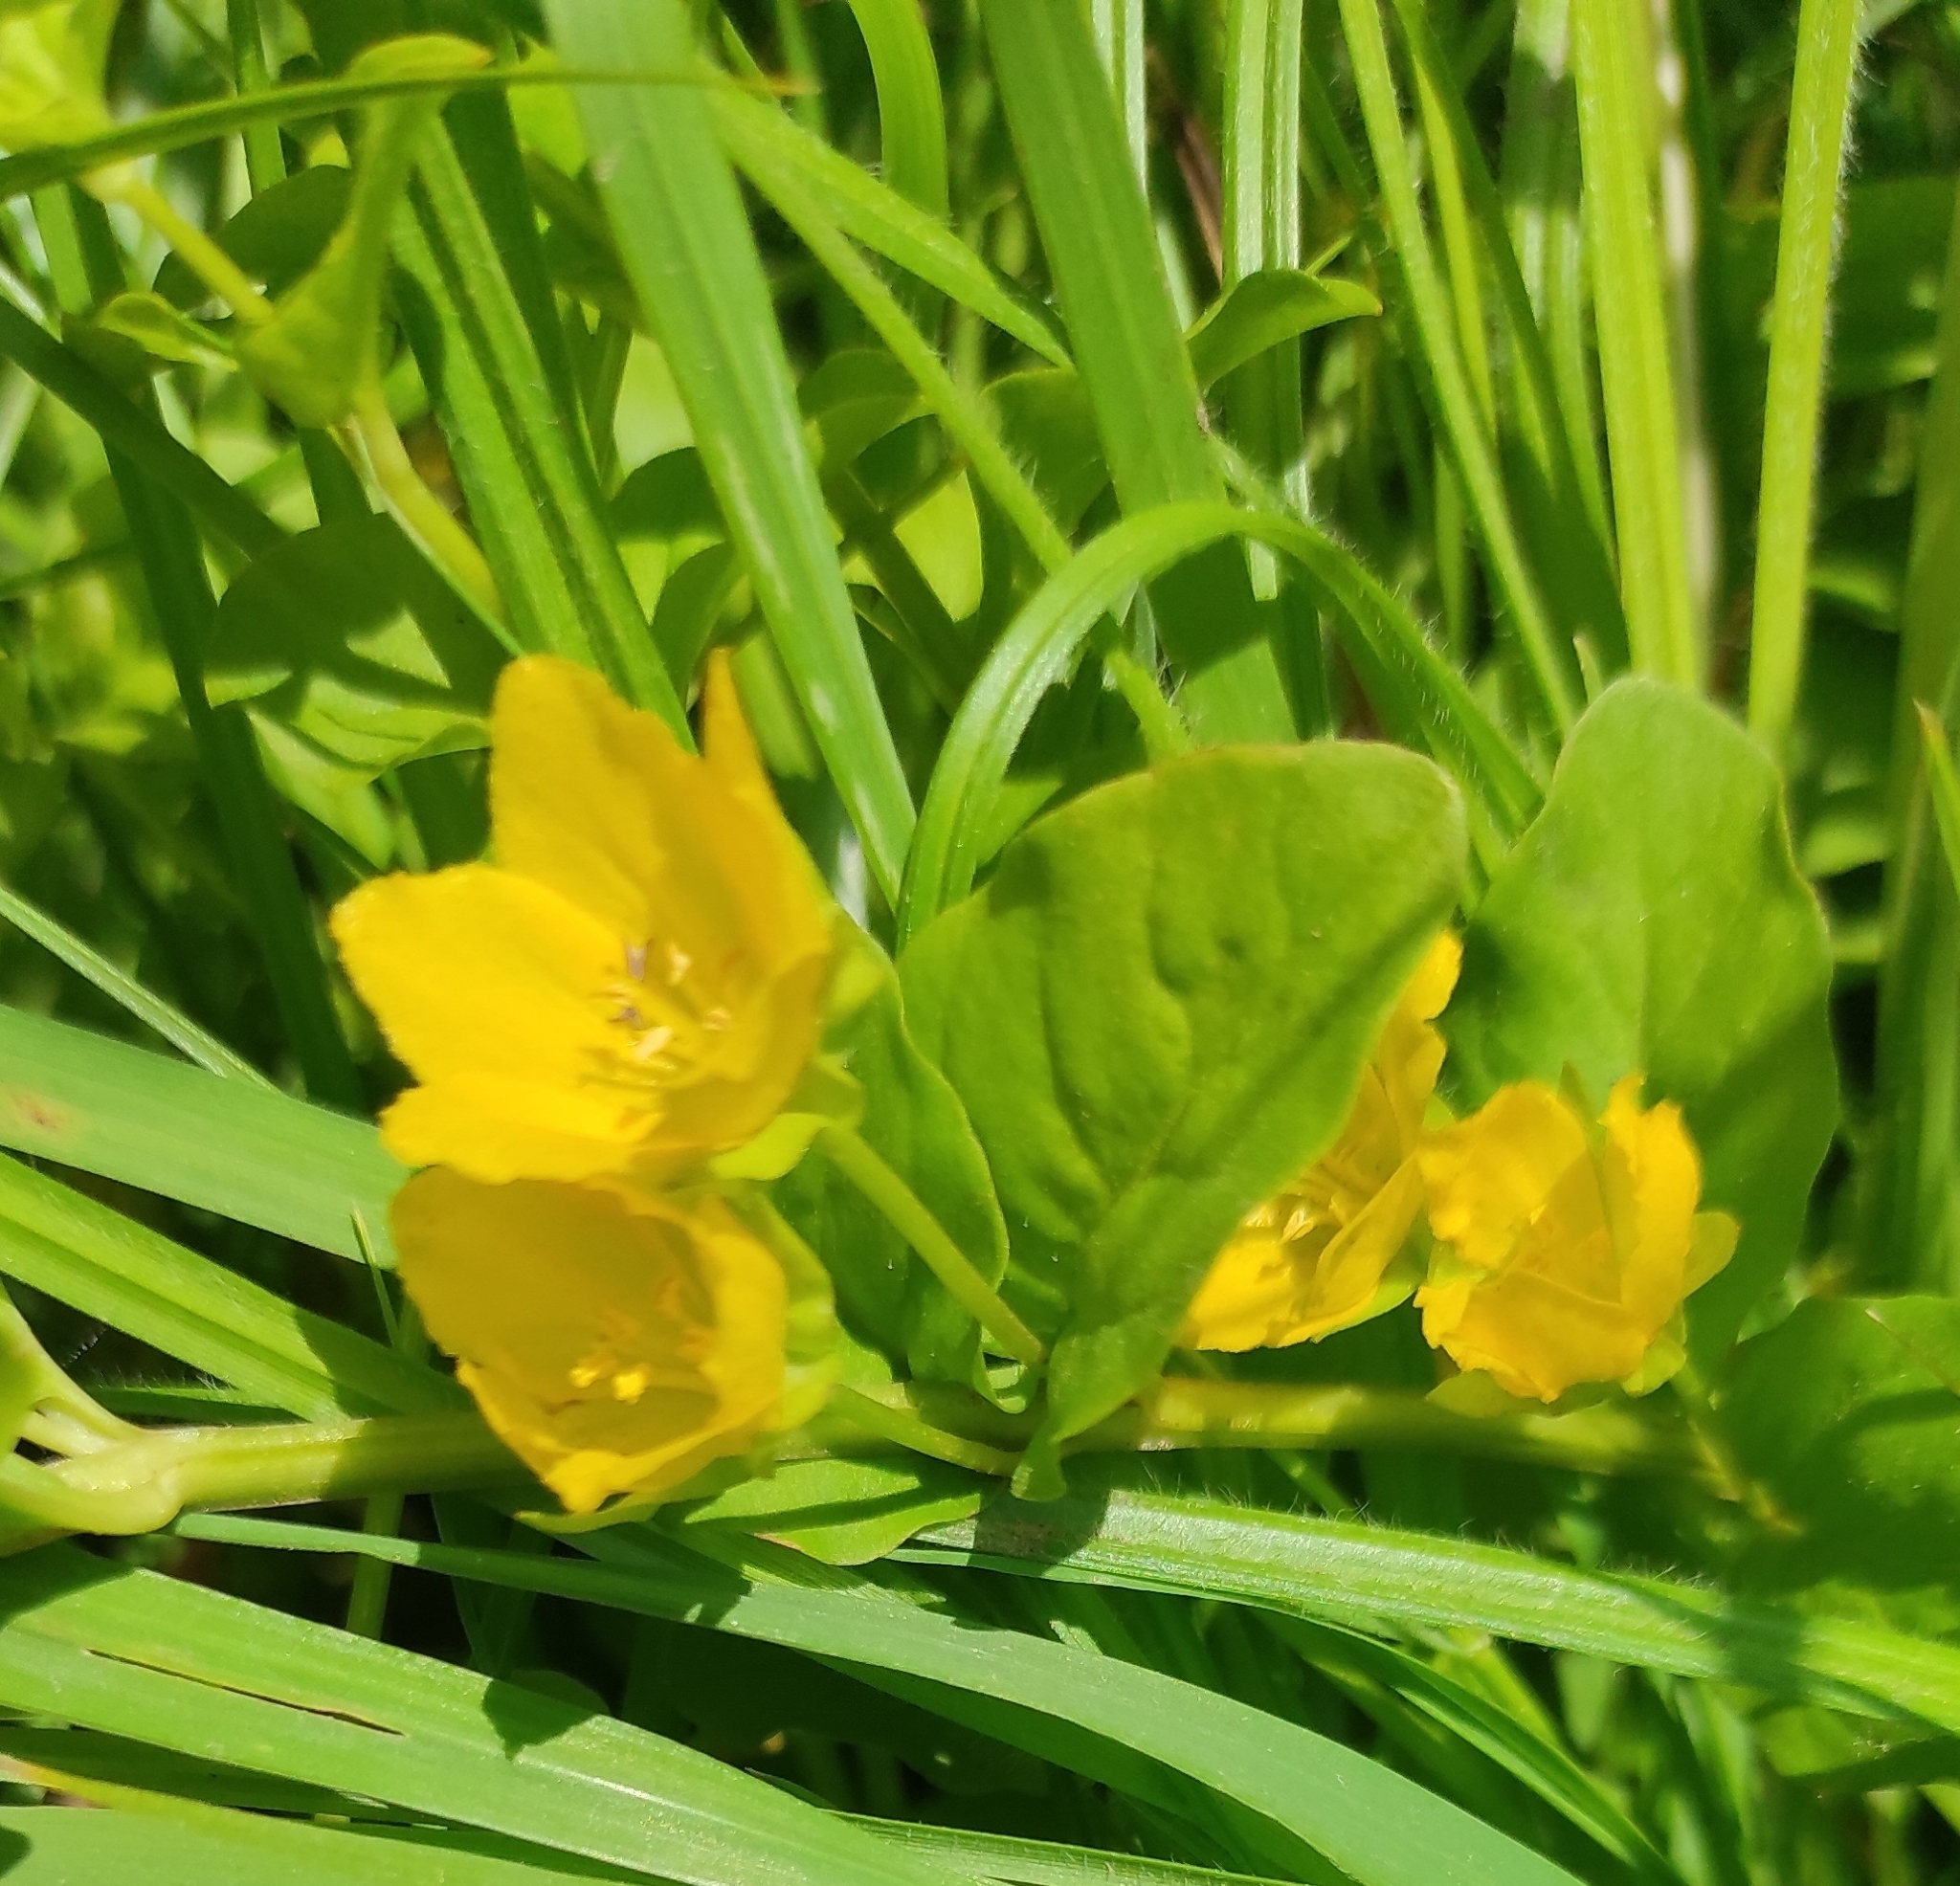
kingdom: Plantae
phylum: Tracheophyta
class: Magnoliopsida
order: Ericales
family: Primulaceae
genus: Lysimachia
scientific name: Lysimachia nummularia
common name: Moneywort
